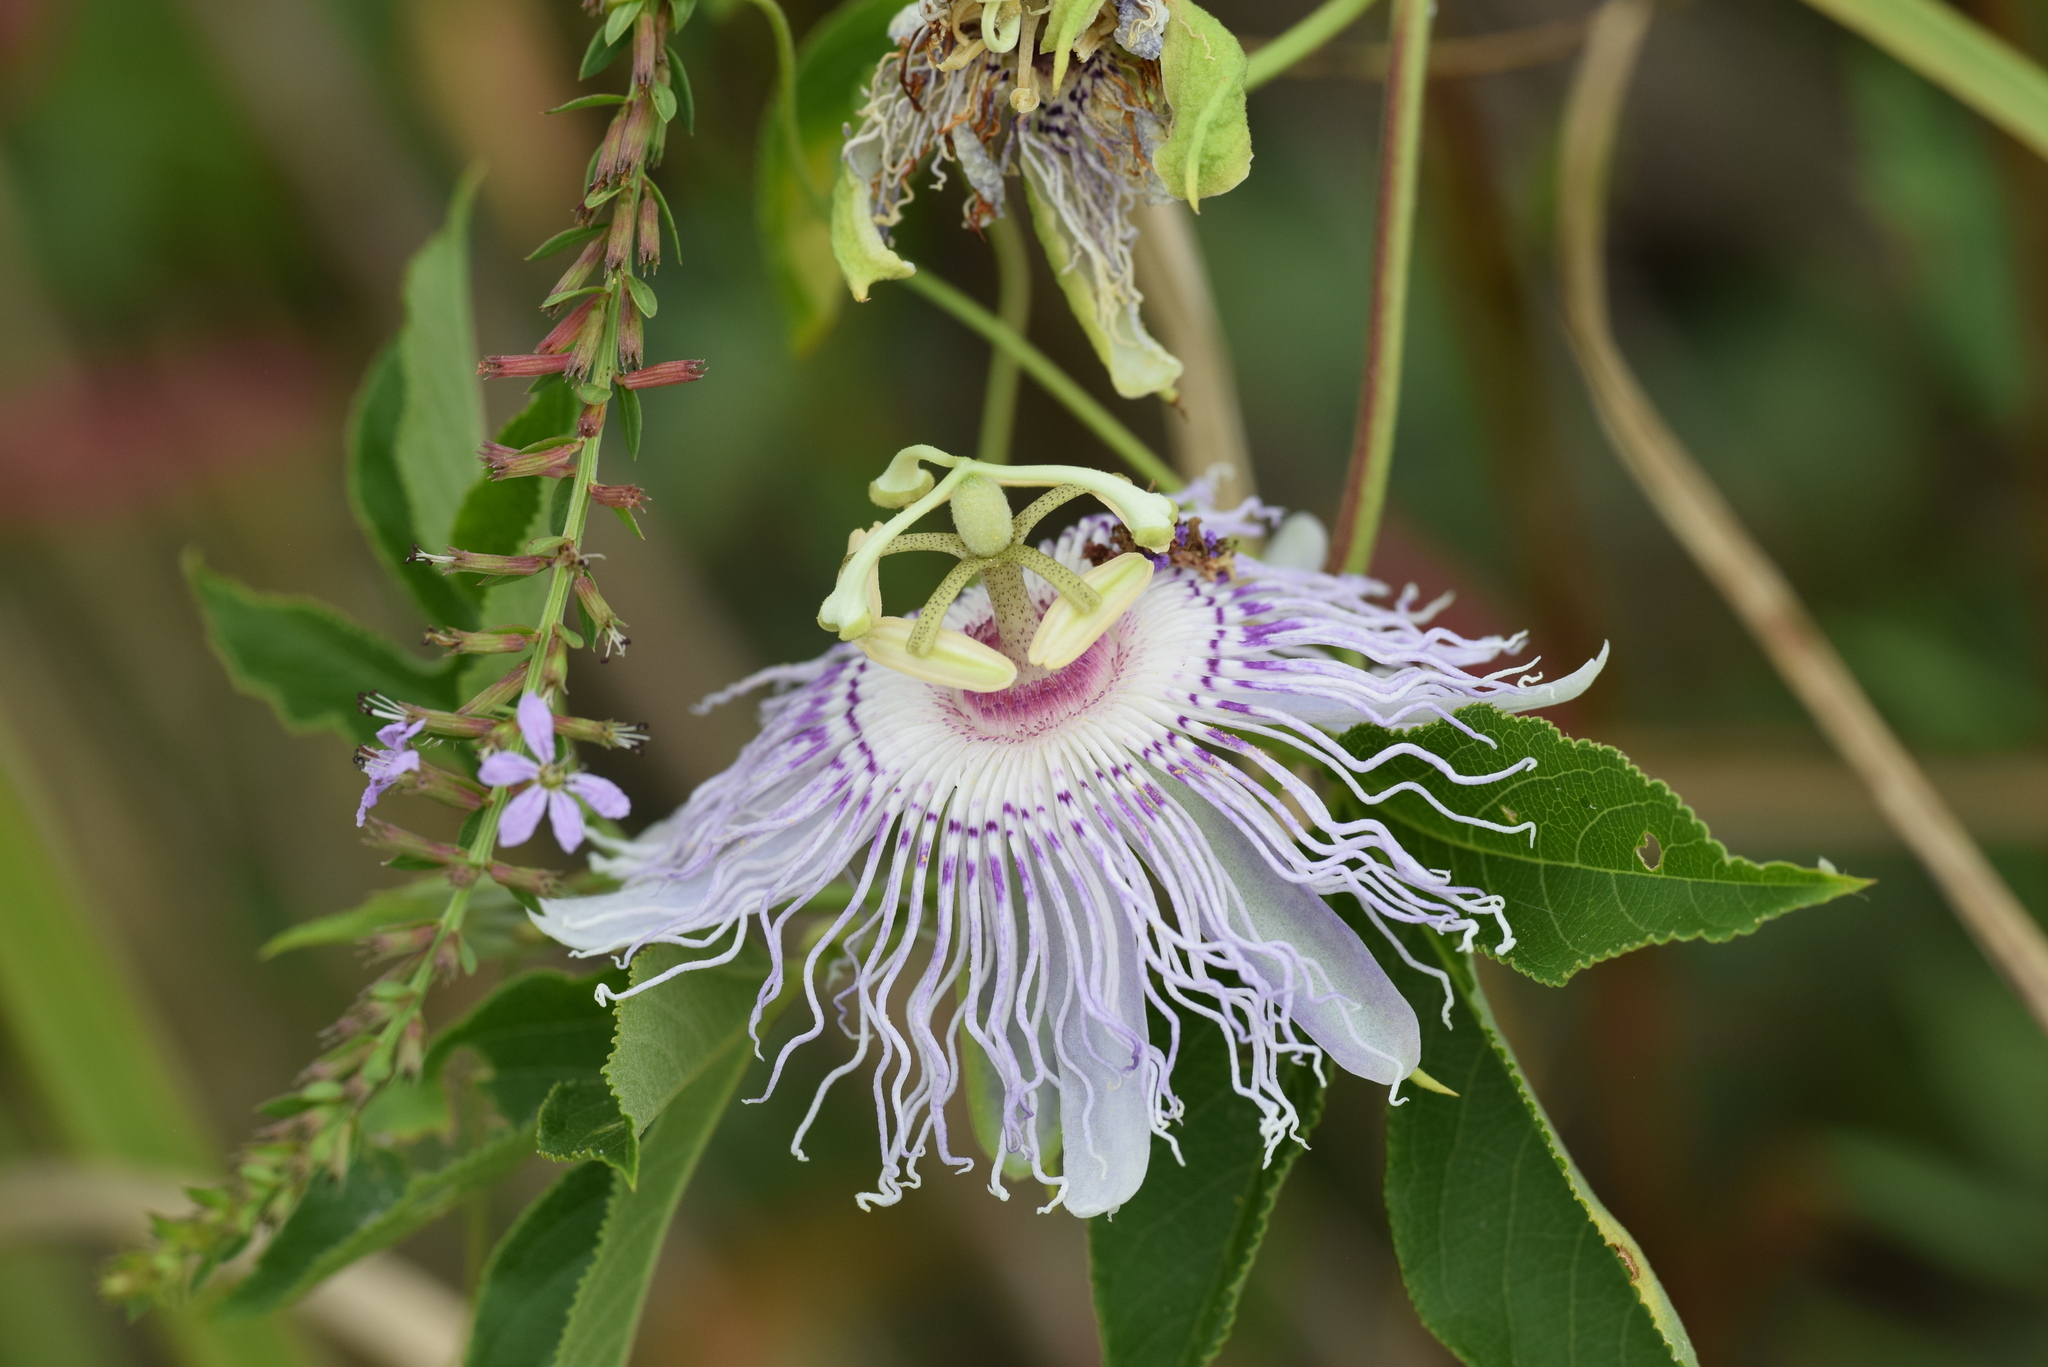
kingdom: Plantae
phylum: Tracheophyta
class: Magnoliopsida
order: Malpighiales
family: Passifloraceae
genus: Passiflora
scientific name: Passiflora incarnata
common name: Apricot-vine
